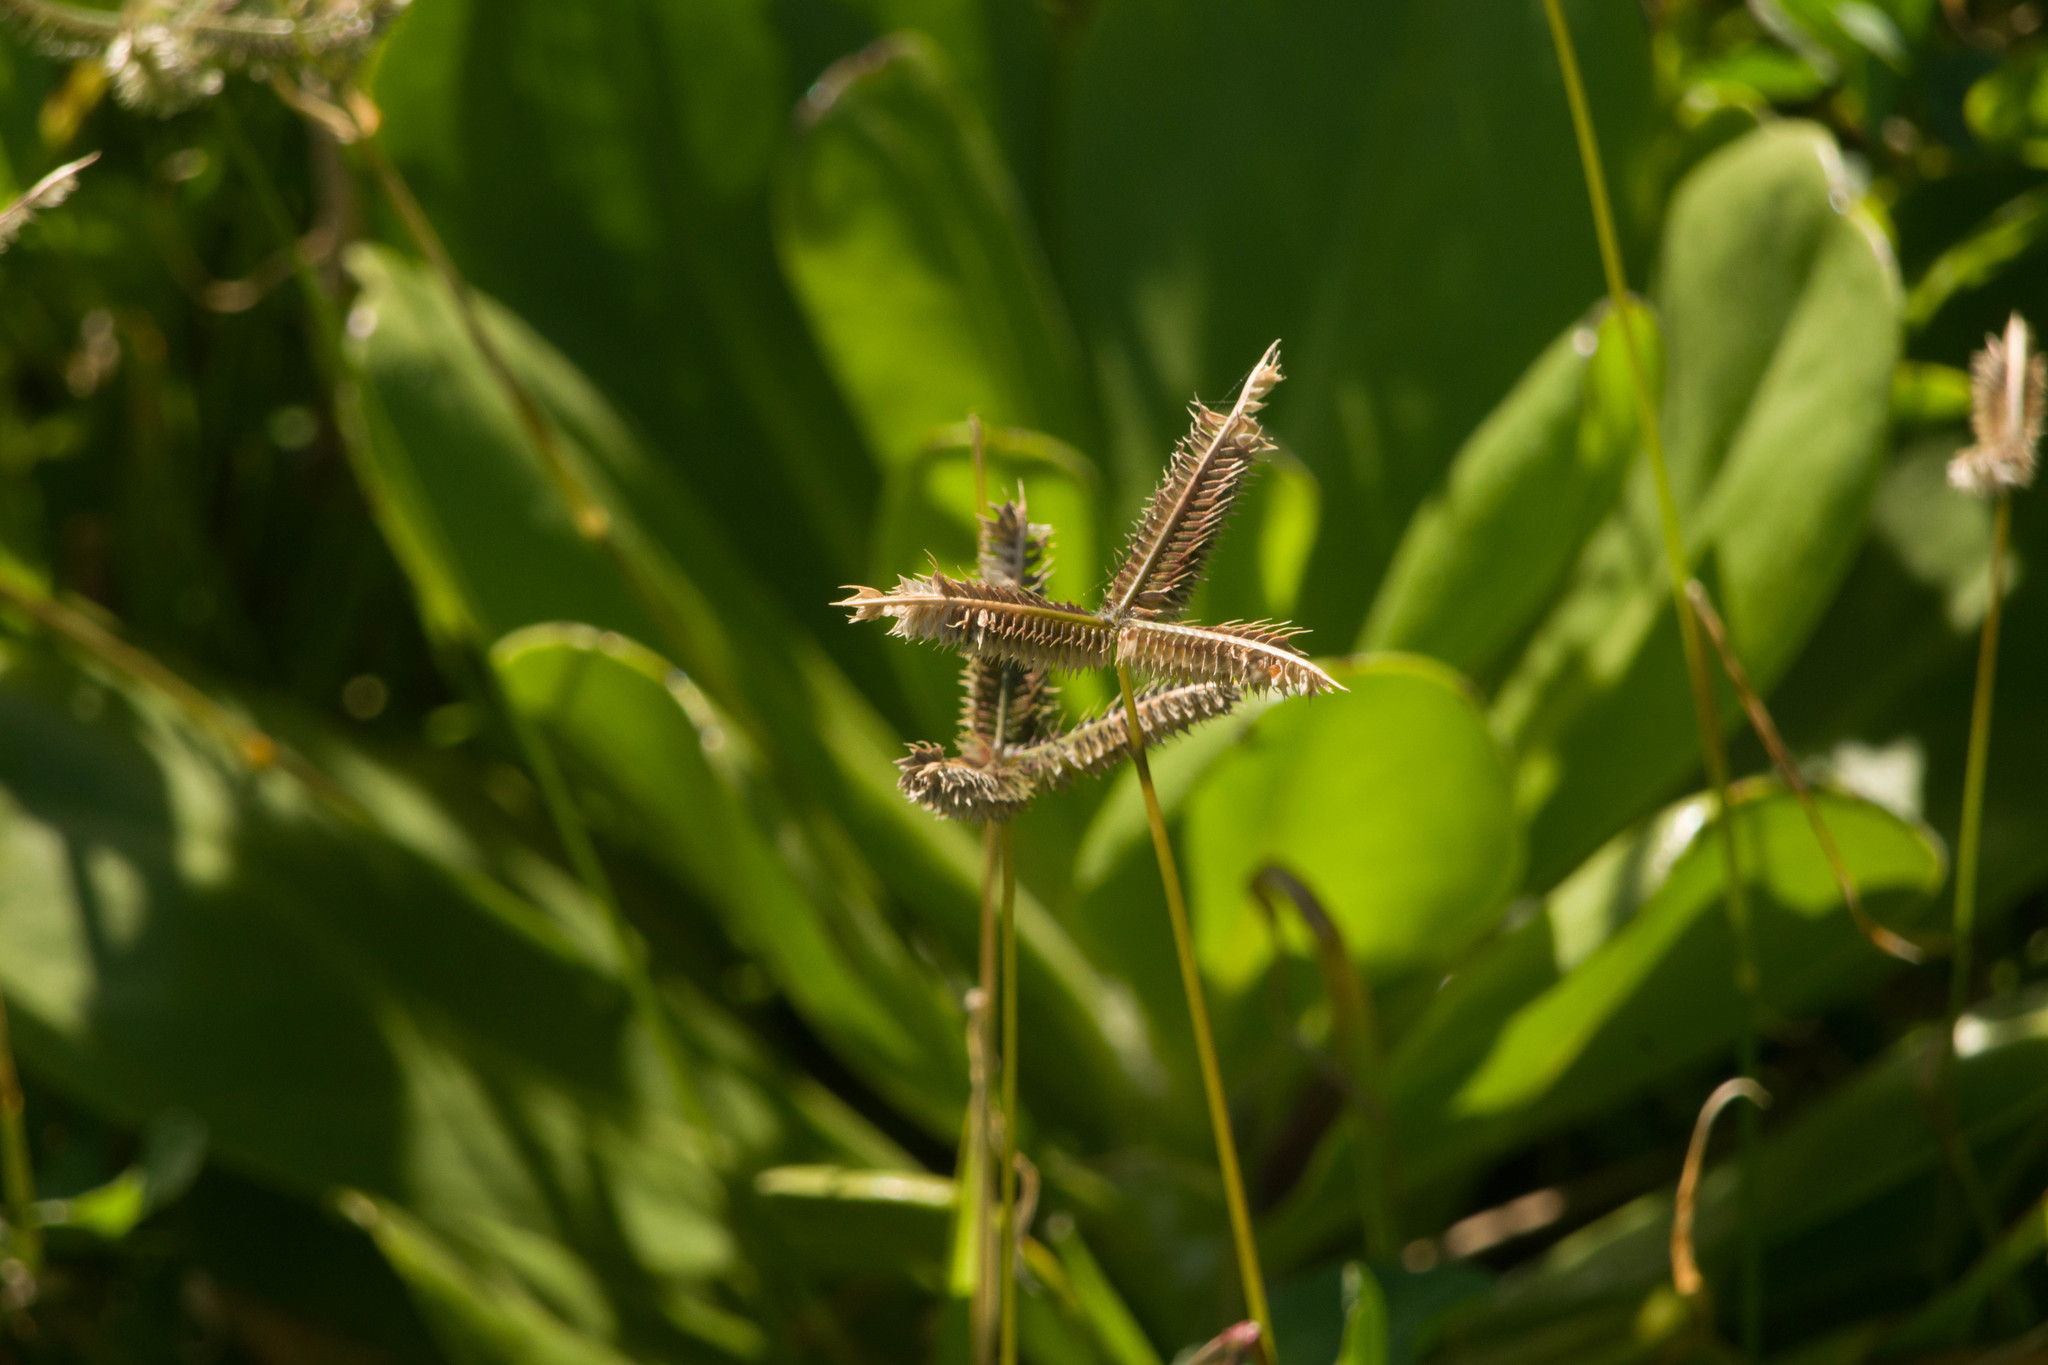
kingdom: Plantae
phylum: Tracheophyta
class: Liliopsida
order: Poales
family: Poaceae
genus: Dactyloctenium
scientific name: Dactyloctenium aegyptium
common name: Egyptian grass
